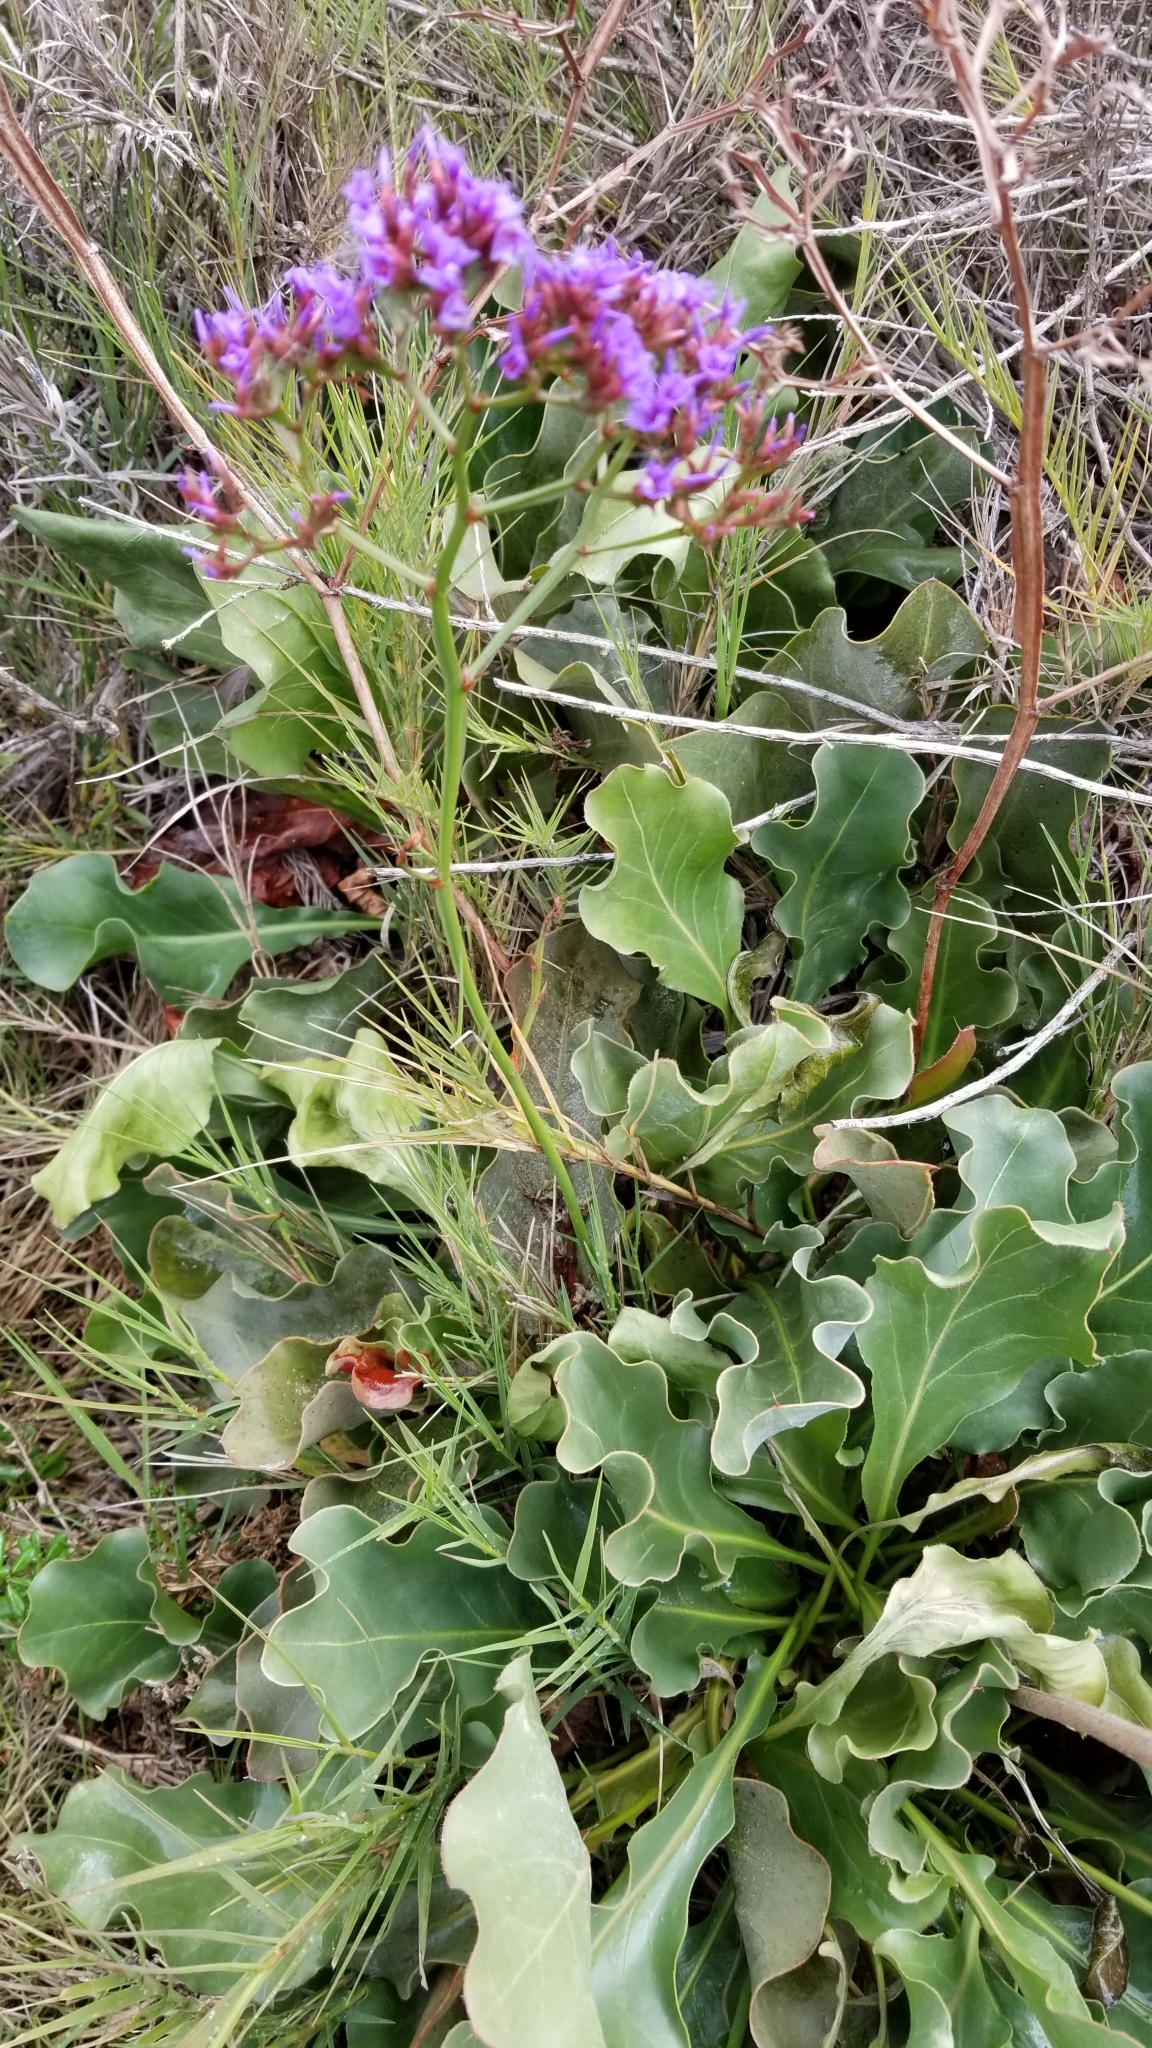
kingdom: Plantae
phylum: Tracheophyta
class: Magnoliopsida
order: Caryophyllales
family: Plumbaginaceae
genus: Limonium
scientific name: Limonium perezii
